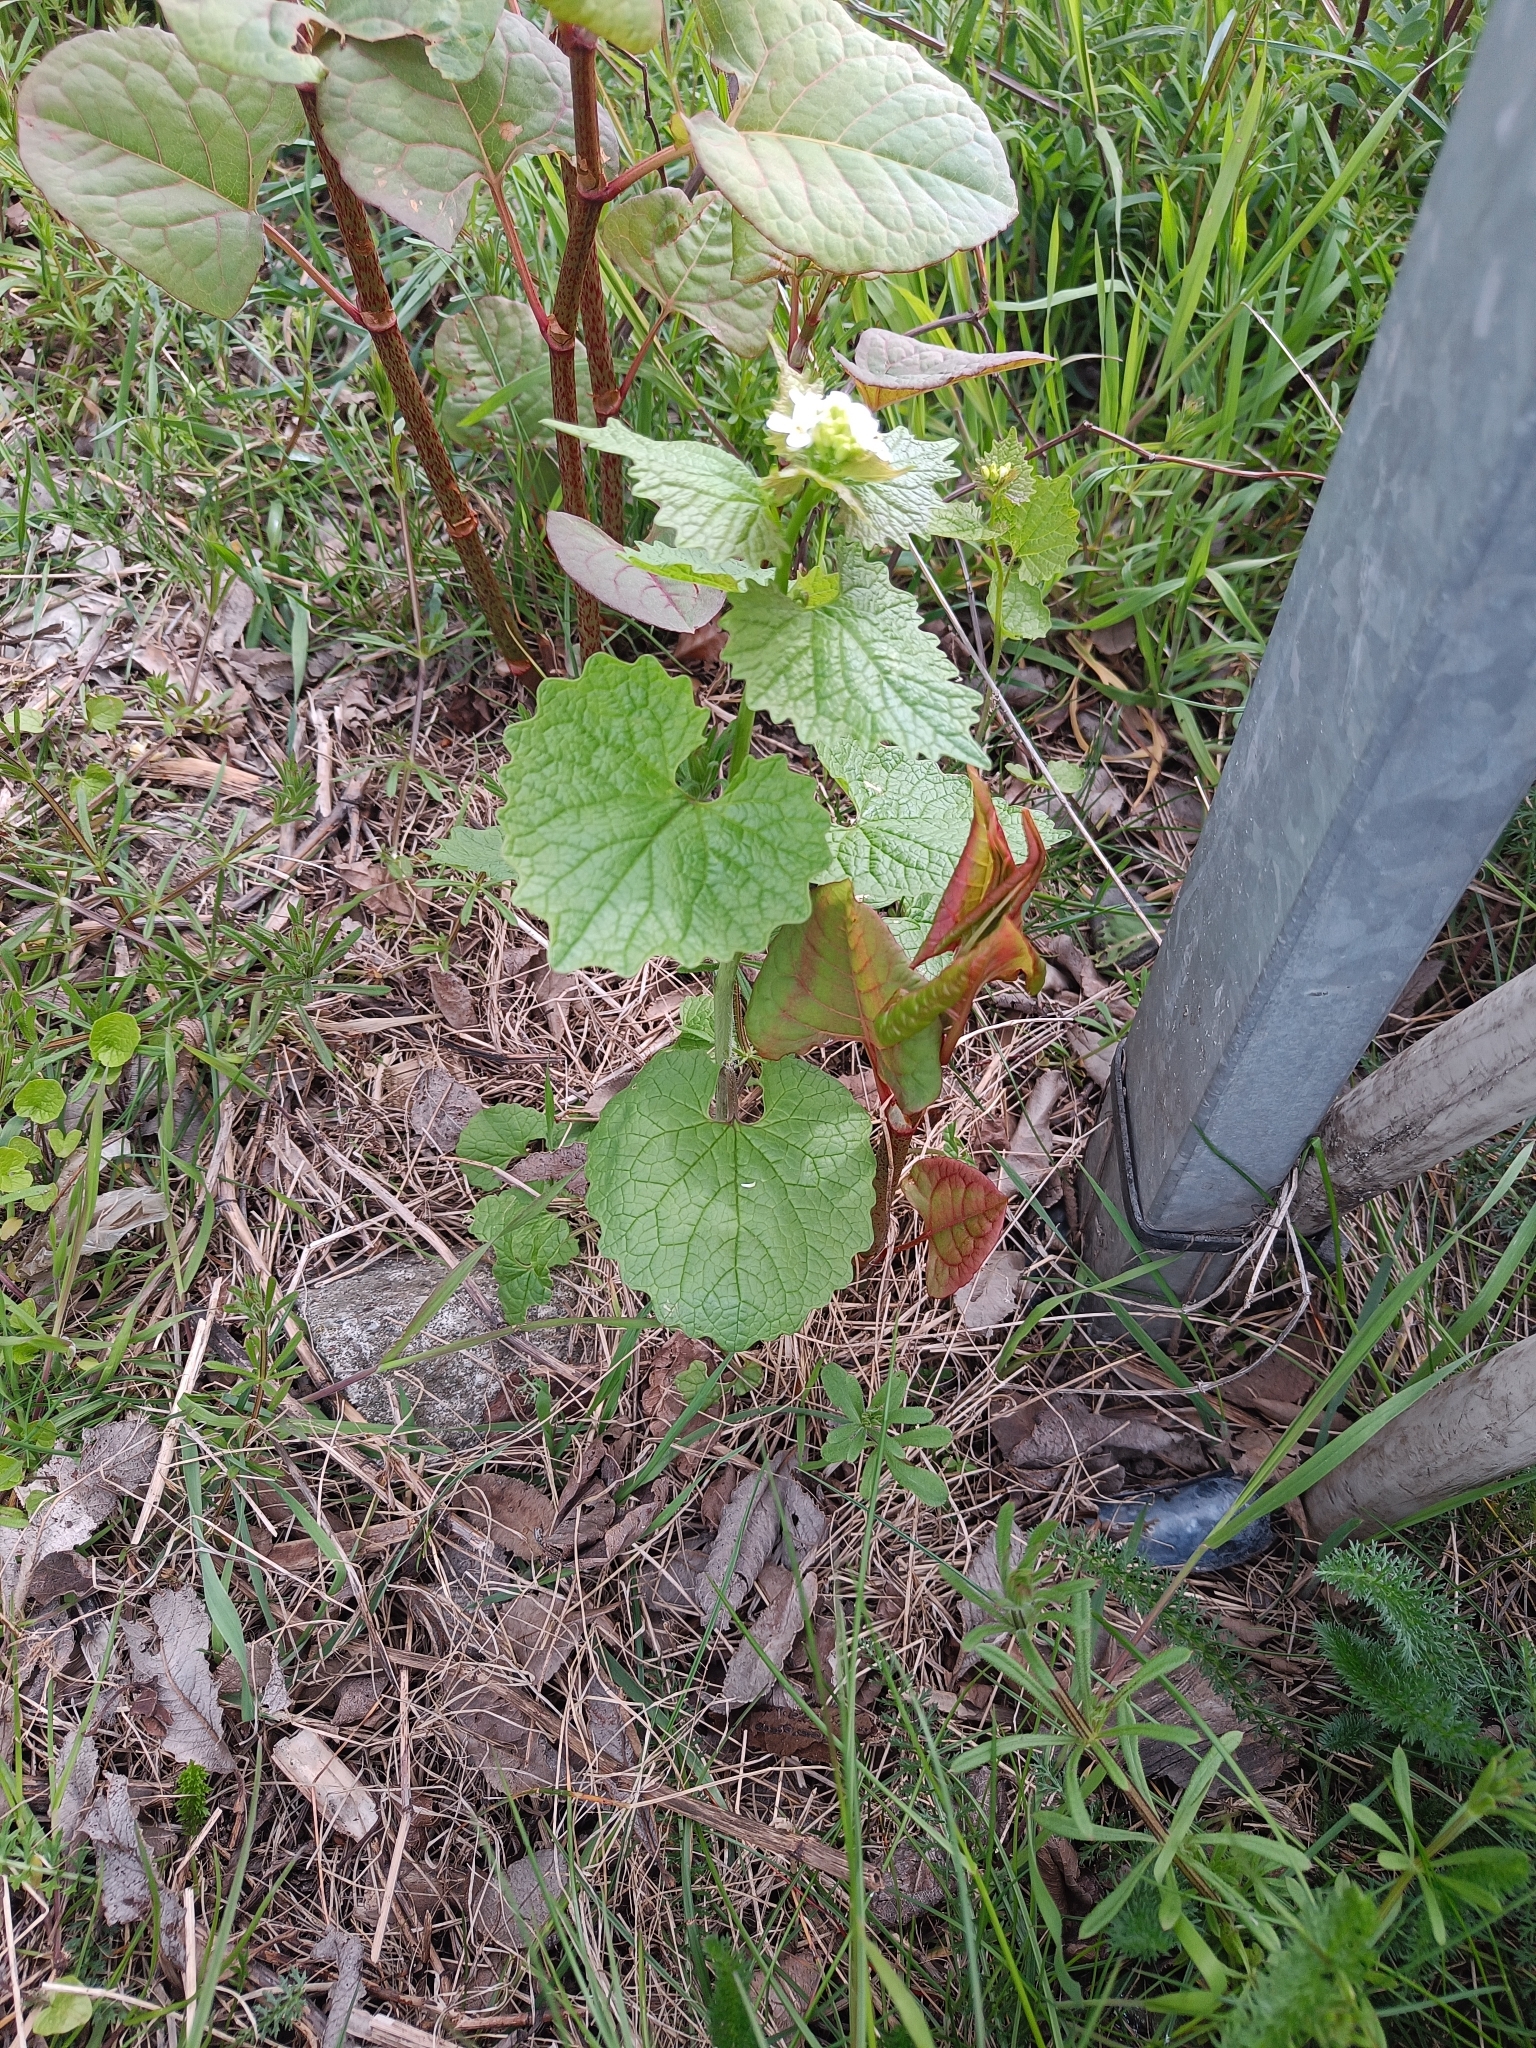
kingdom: Plantae
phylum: Tracheophyta
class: Magnoliopsida
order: Brassicales
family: Brassicaceae
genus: Alliaria
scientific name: Alliaria petiolata
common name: Garlic mustard
